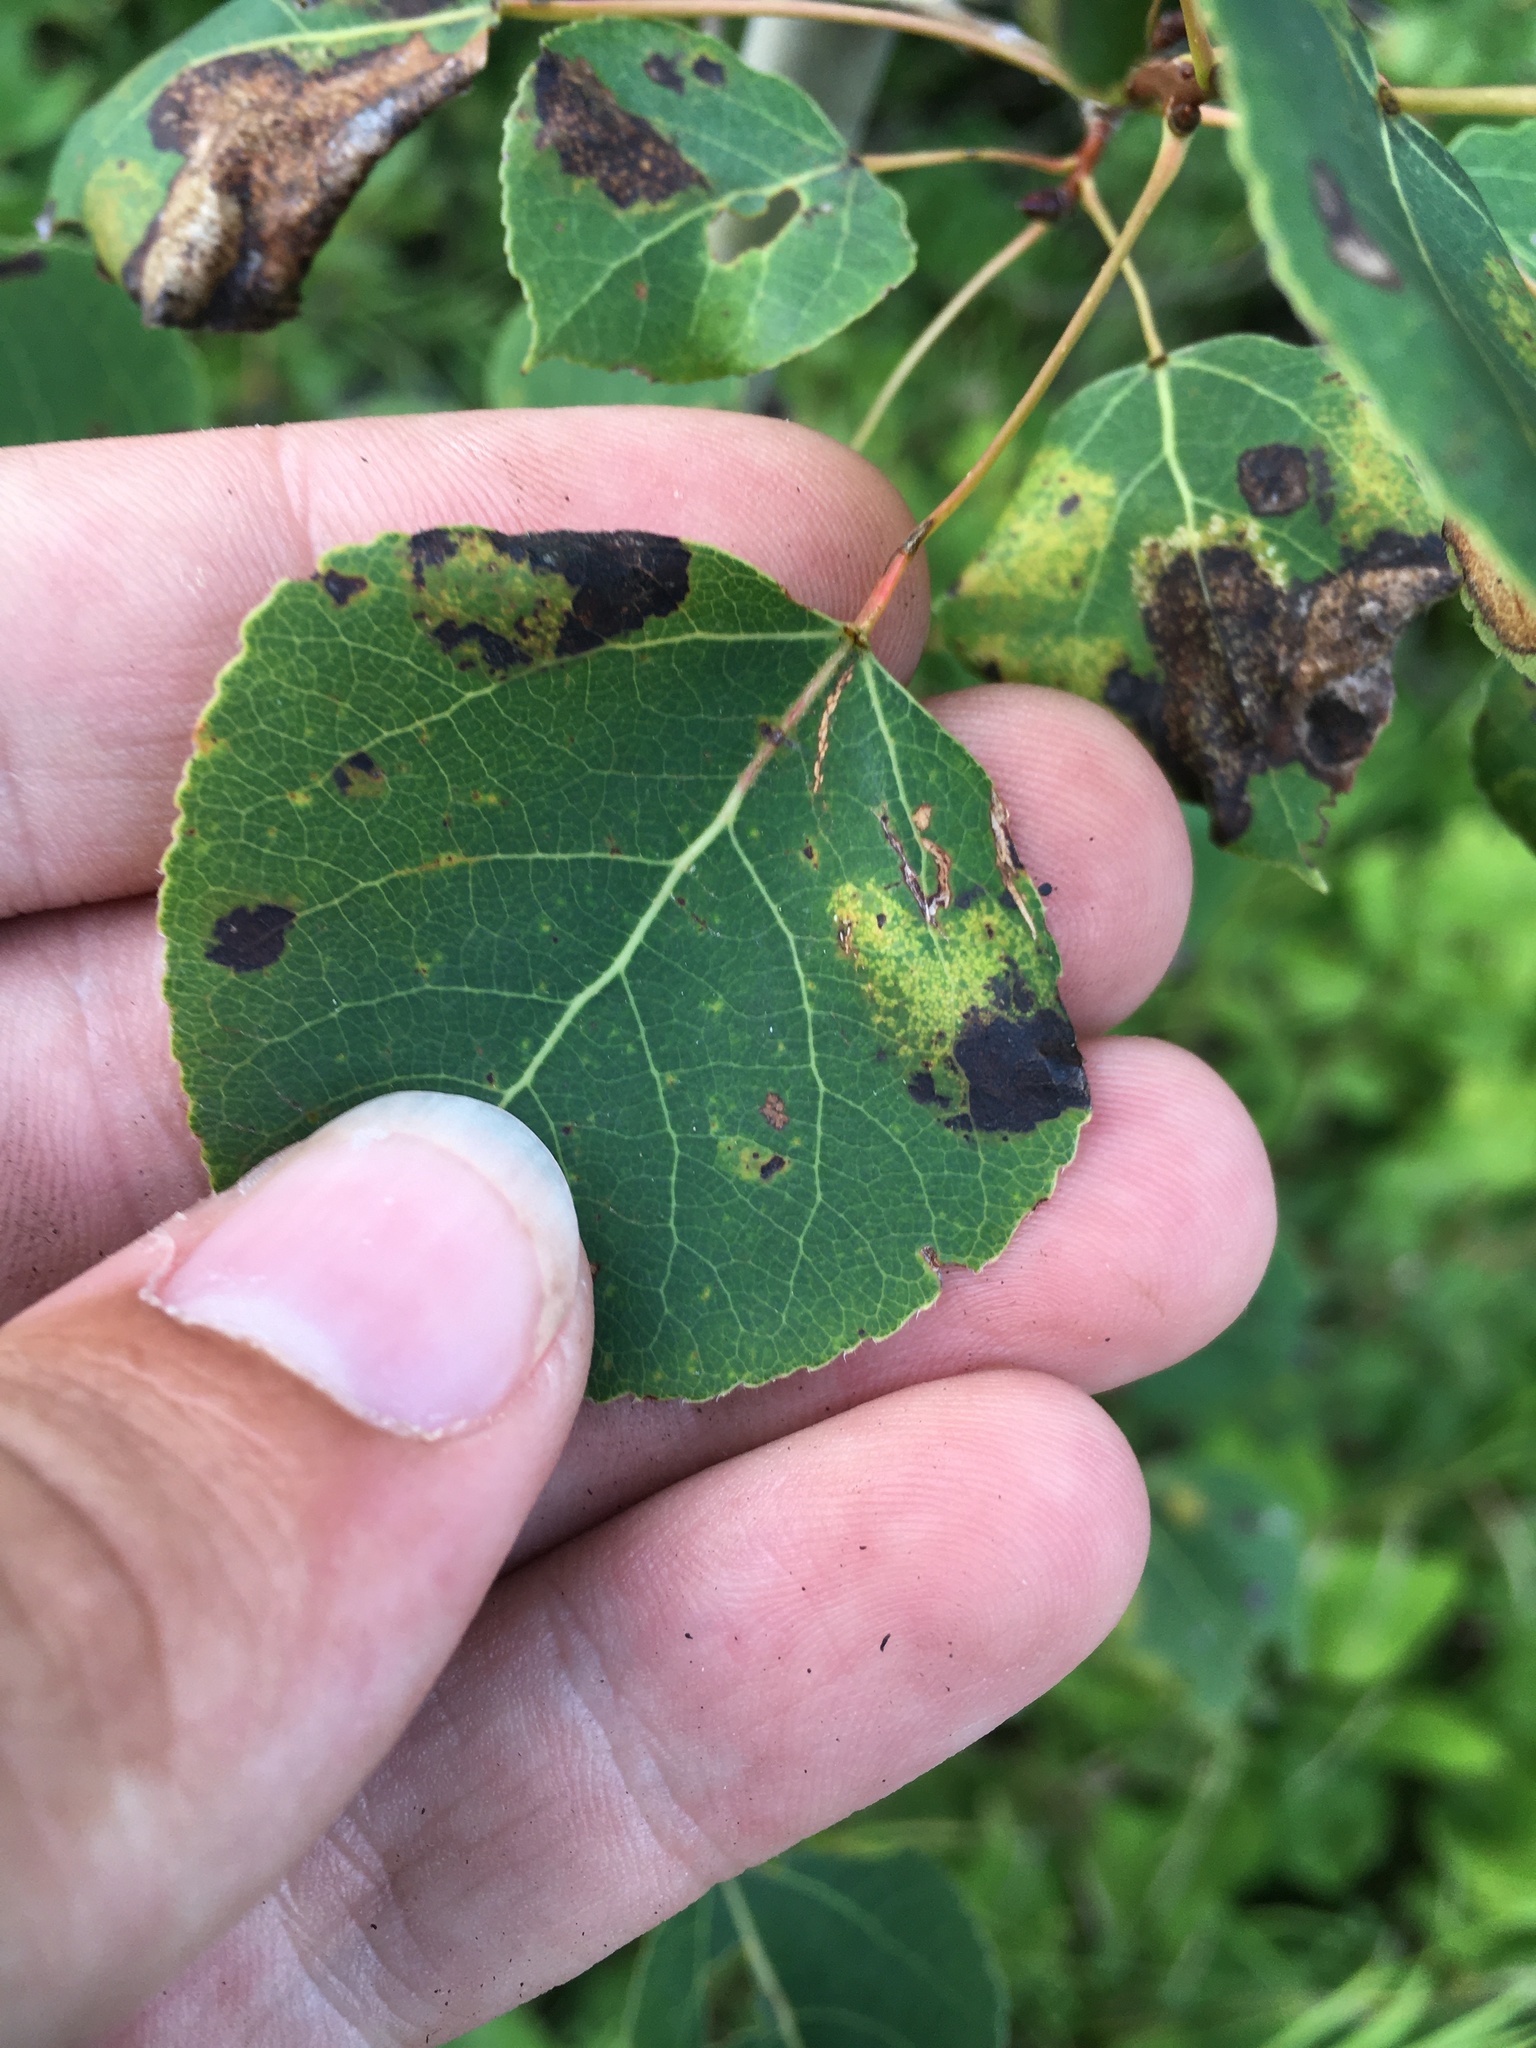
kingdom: Animalia
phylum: Arthropoda
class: Insecta
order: Lepidoptera
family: Gracillariidae
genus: Phyllonorycter
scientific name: Phyllonorycter
